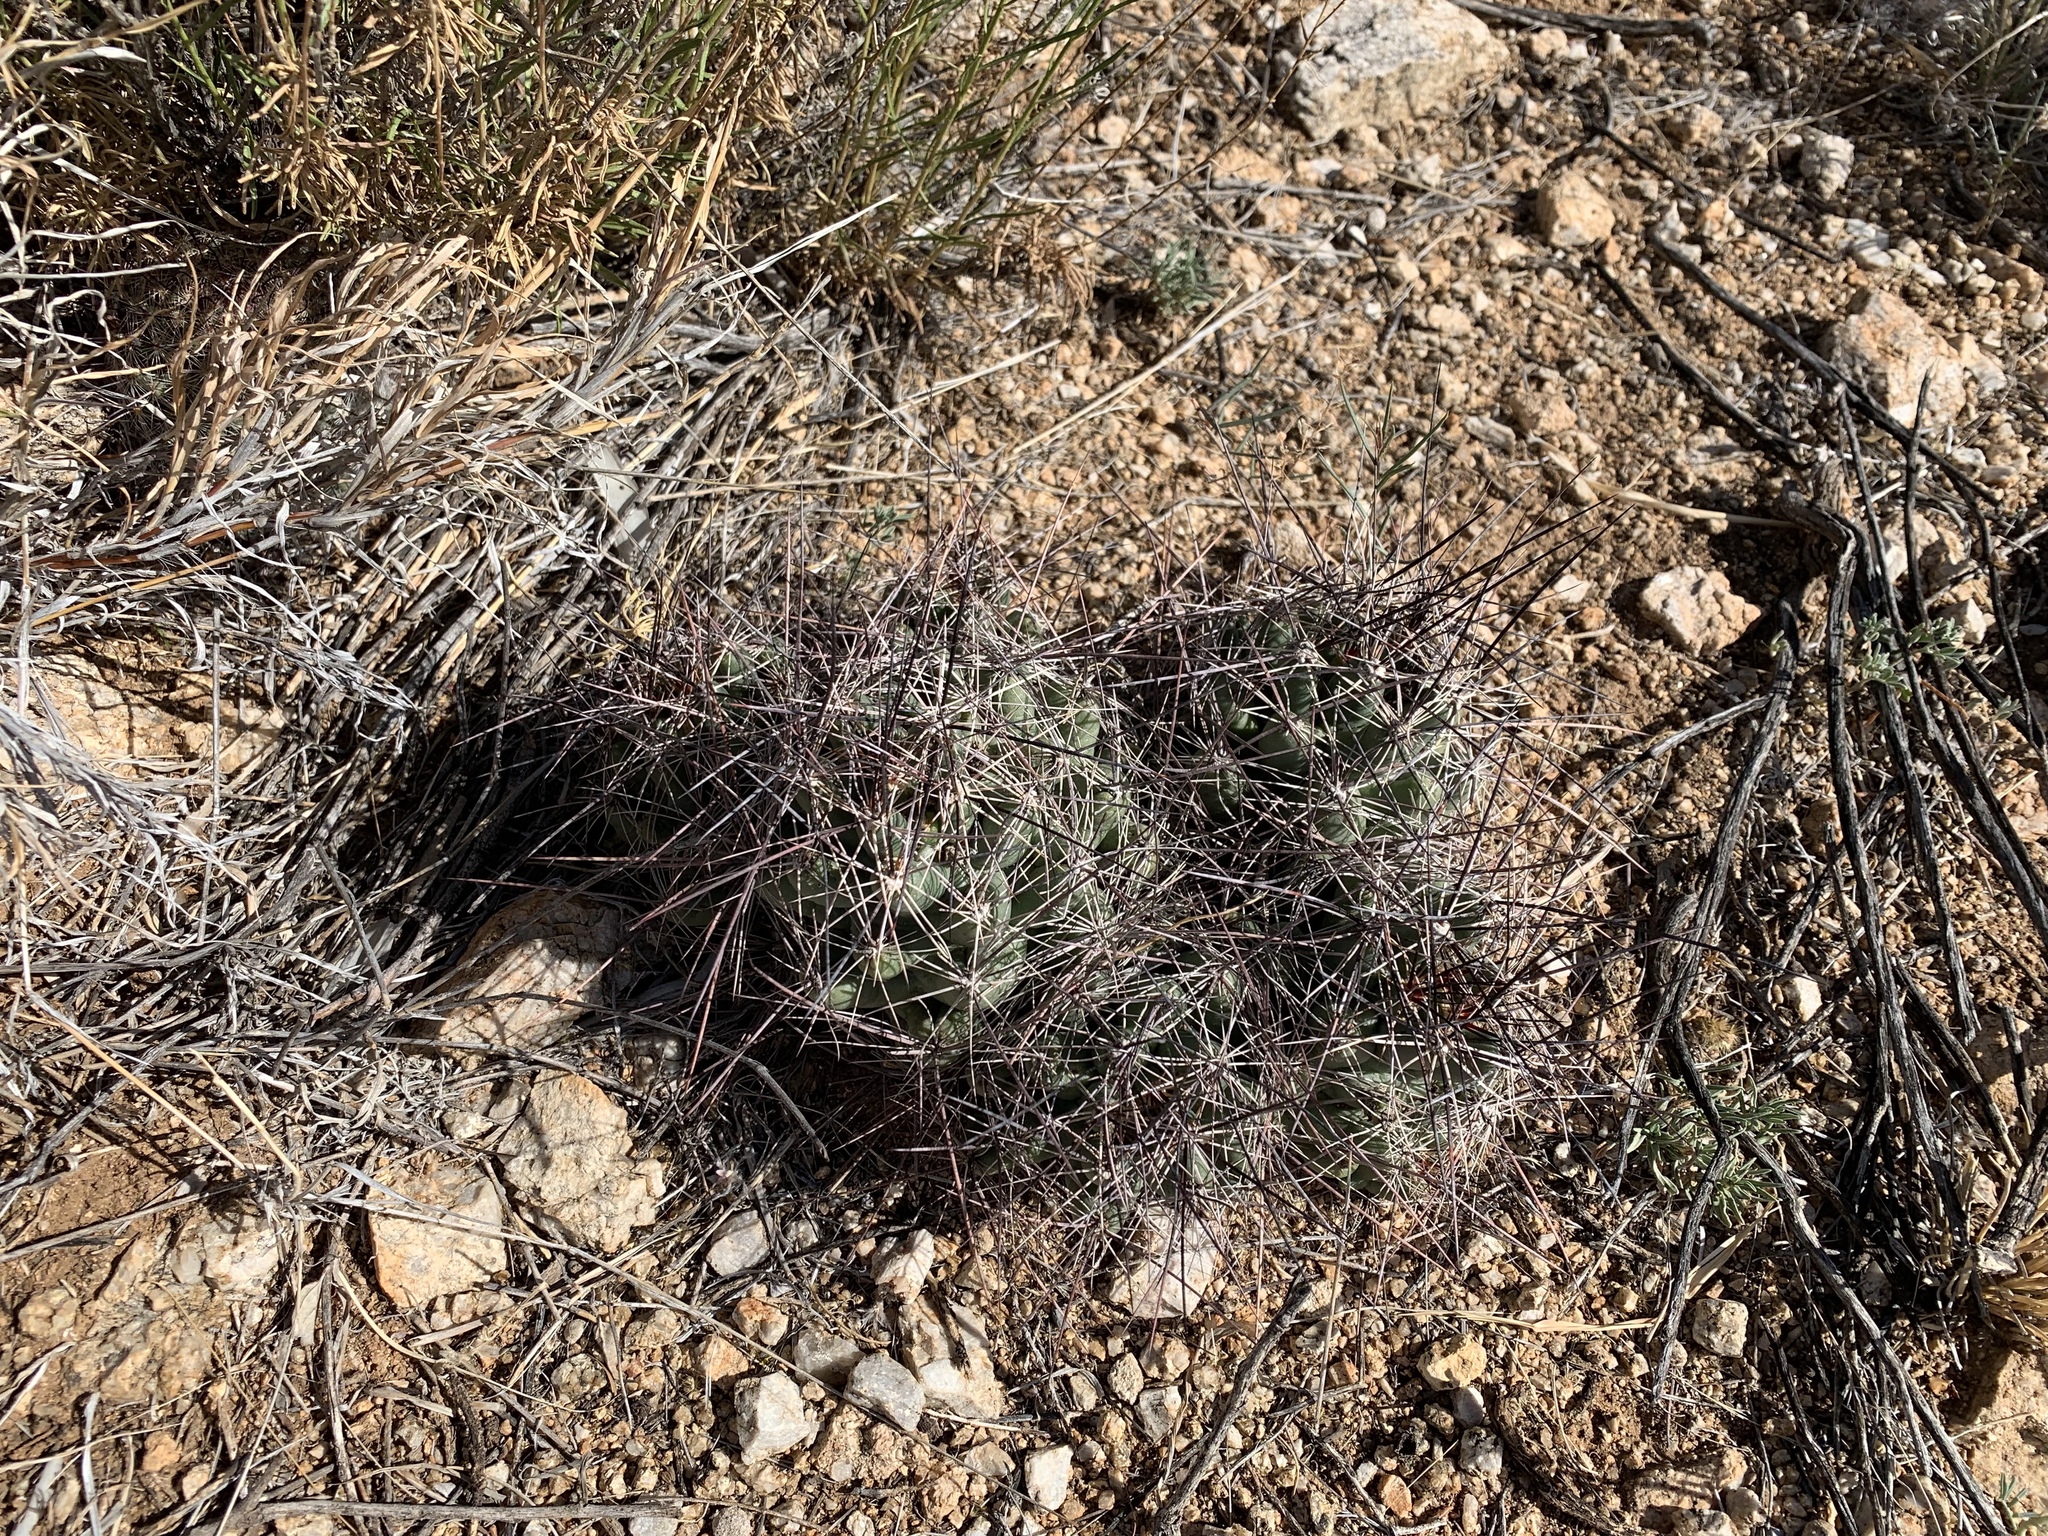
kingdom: Plantae
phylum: Tracheophyta
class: Magnoliopsida
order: Caryophyllales
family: Cactaceae
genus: Coryphantha
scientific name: Coryphantha macromeris
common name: Nipple beehive cactus
